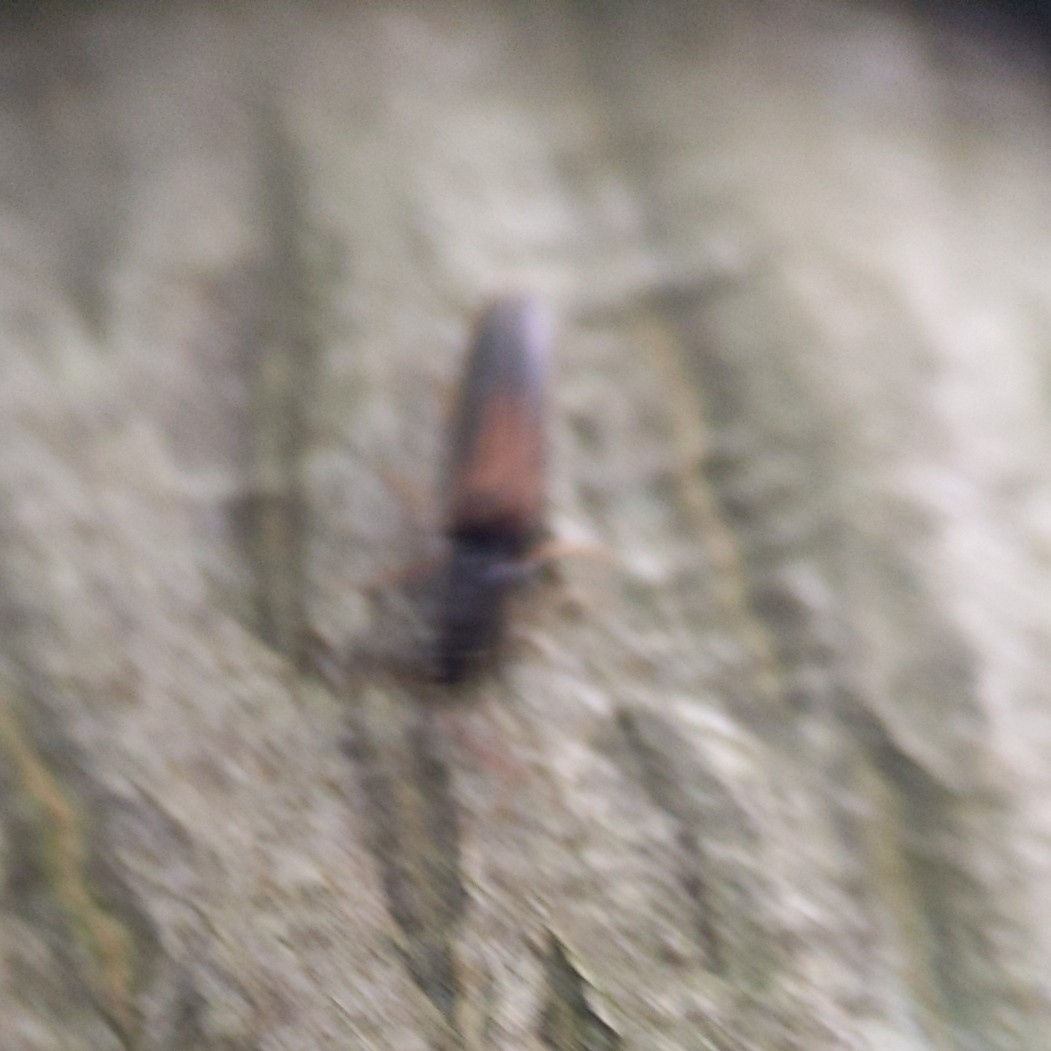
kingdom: Animalia
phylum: Arthropoda
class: Insecta
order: Coleoptera
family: Eucnemidae
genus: Isorhipis
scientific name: Isorhipis obliqua
